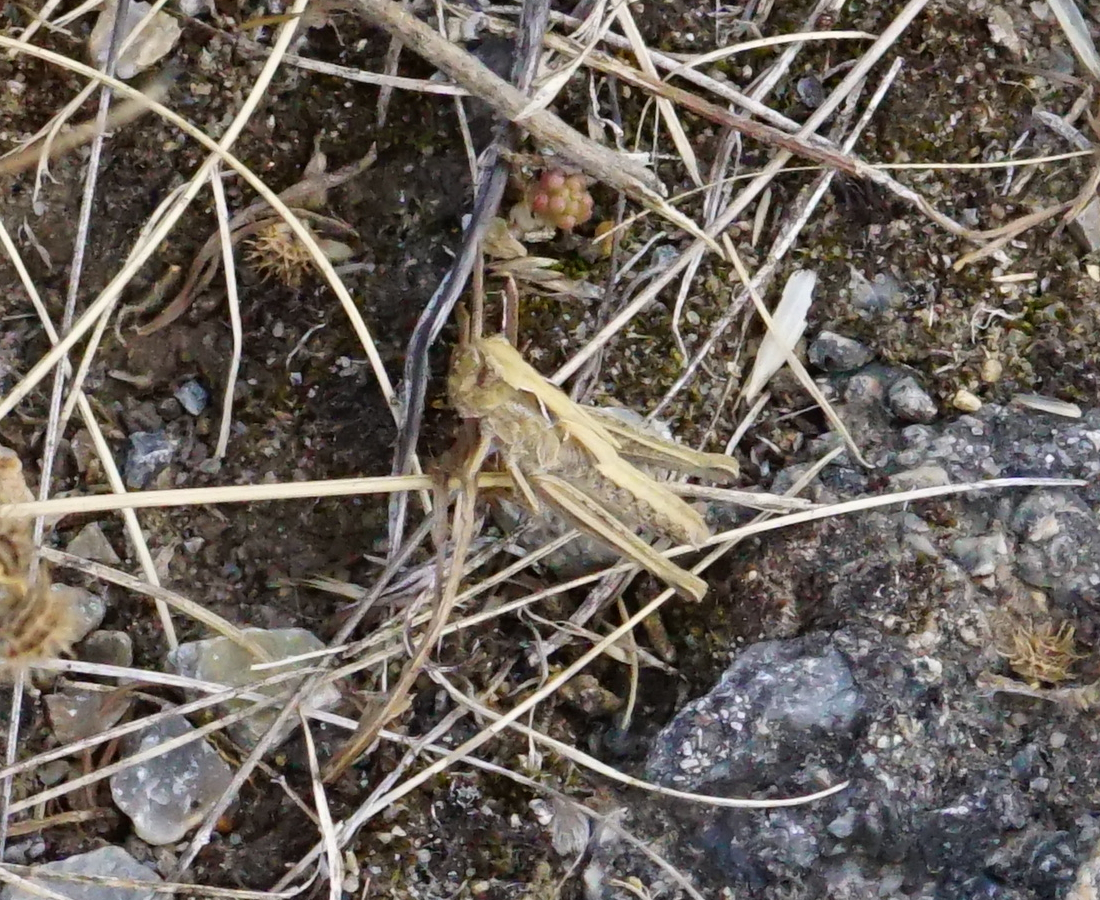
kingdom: Animalia
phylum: Arthropoda
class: Insecta
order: Orthoptera
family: Acrididae
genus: Glyptobothrus
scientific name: Glyptobothrus
